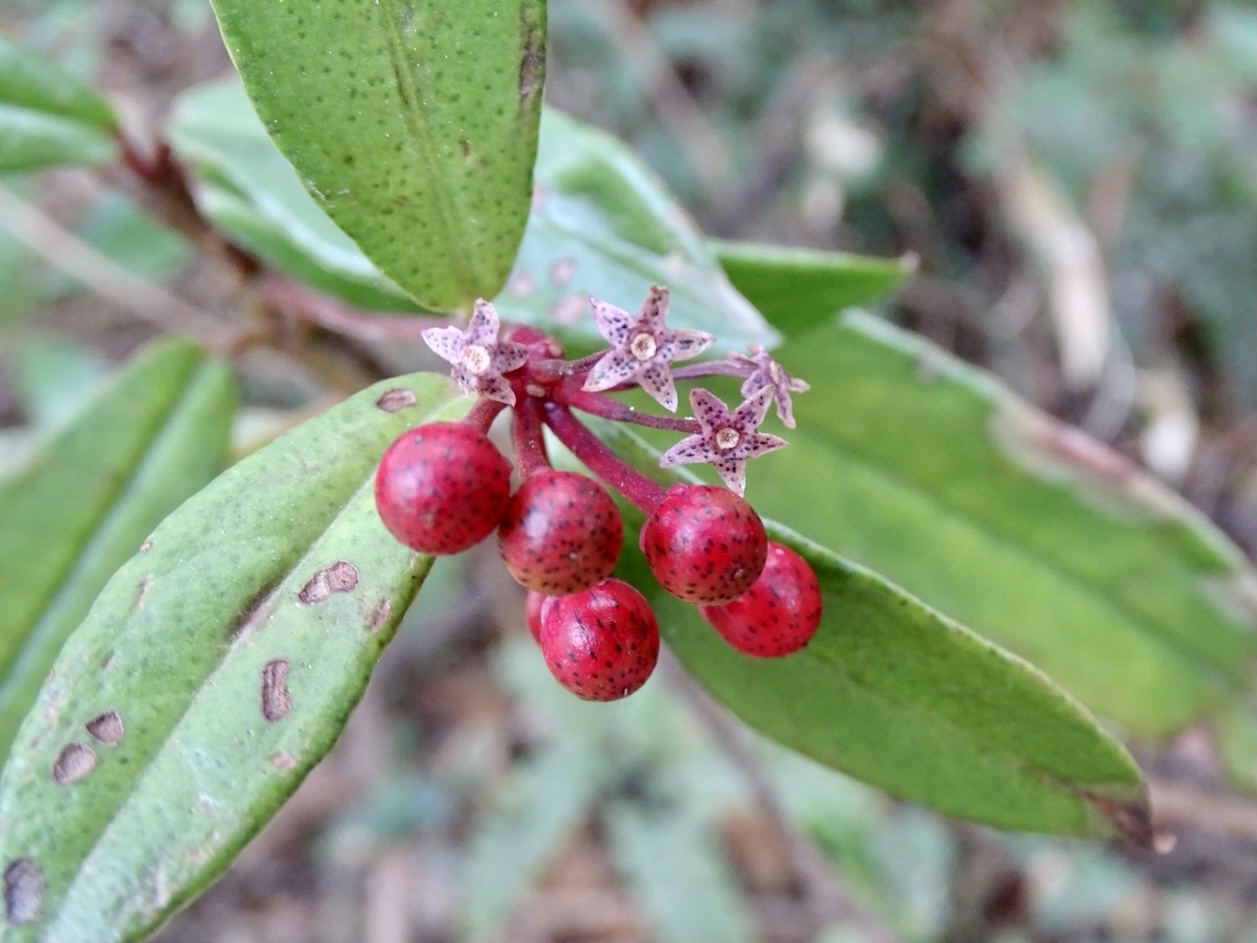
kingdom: Plantae
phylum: Tracheophyta
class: Magnoliopsida
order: Ericales
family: Primulaceae
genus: Ardisia
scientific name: Ardisia lindleyana
